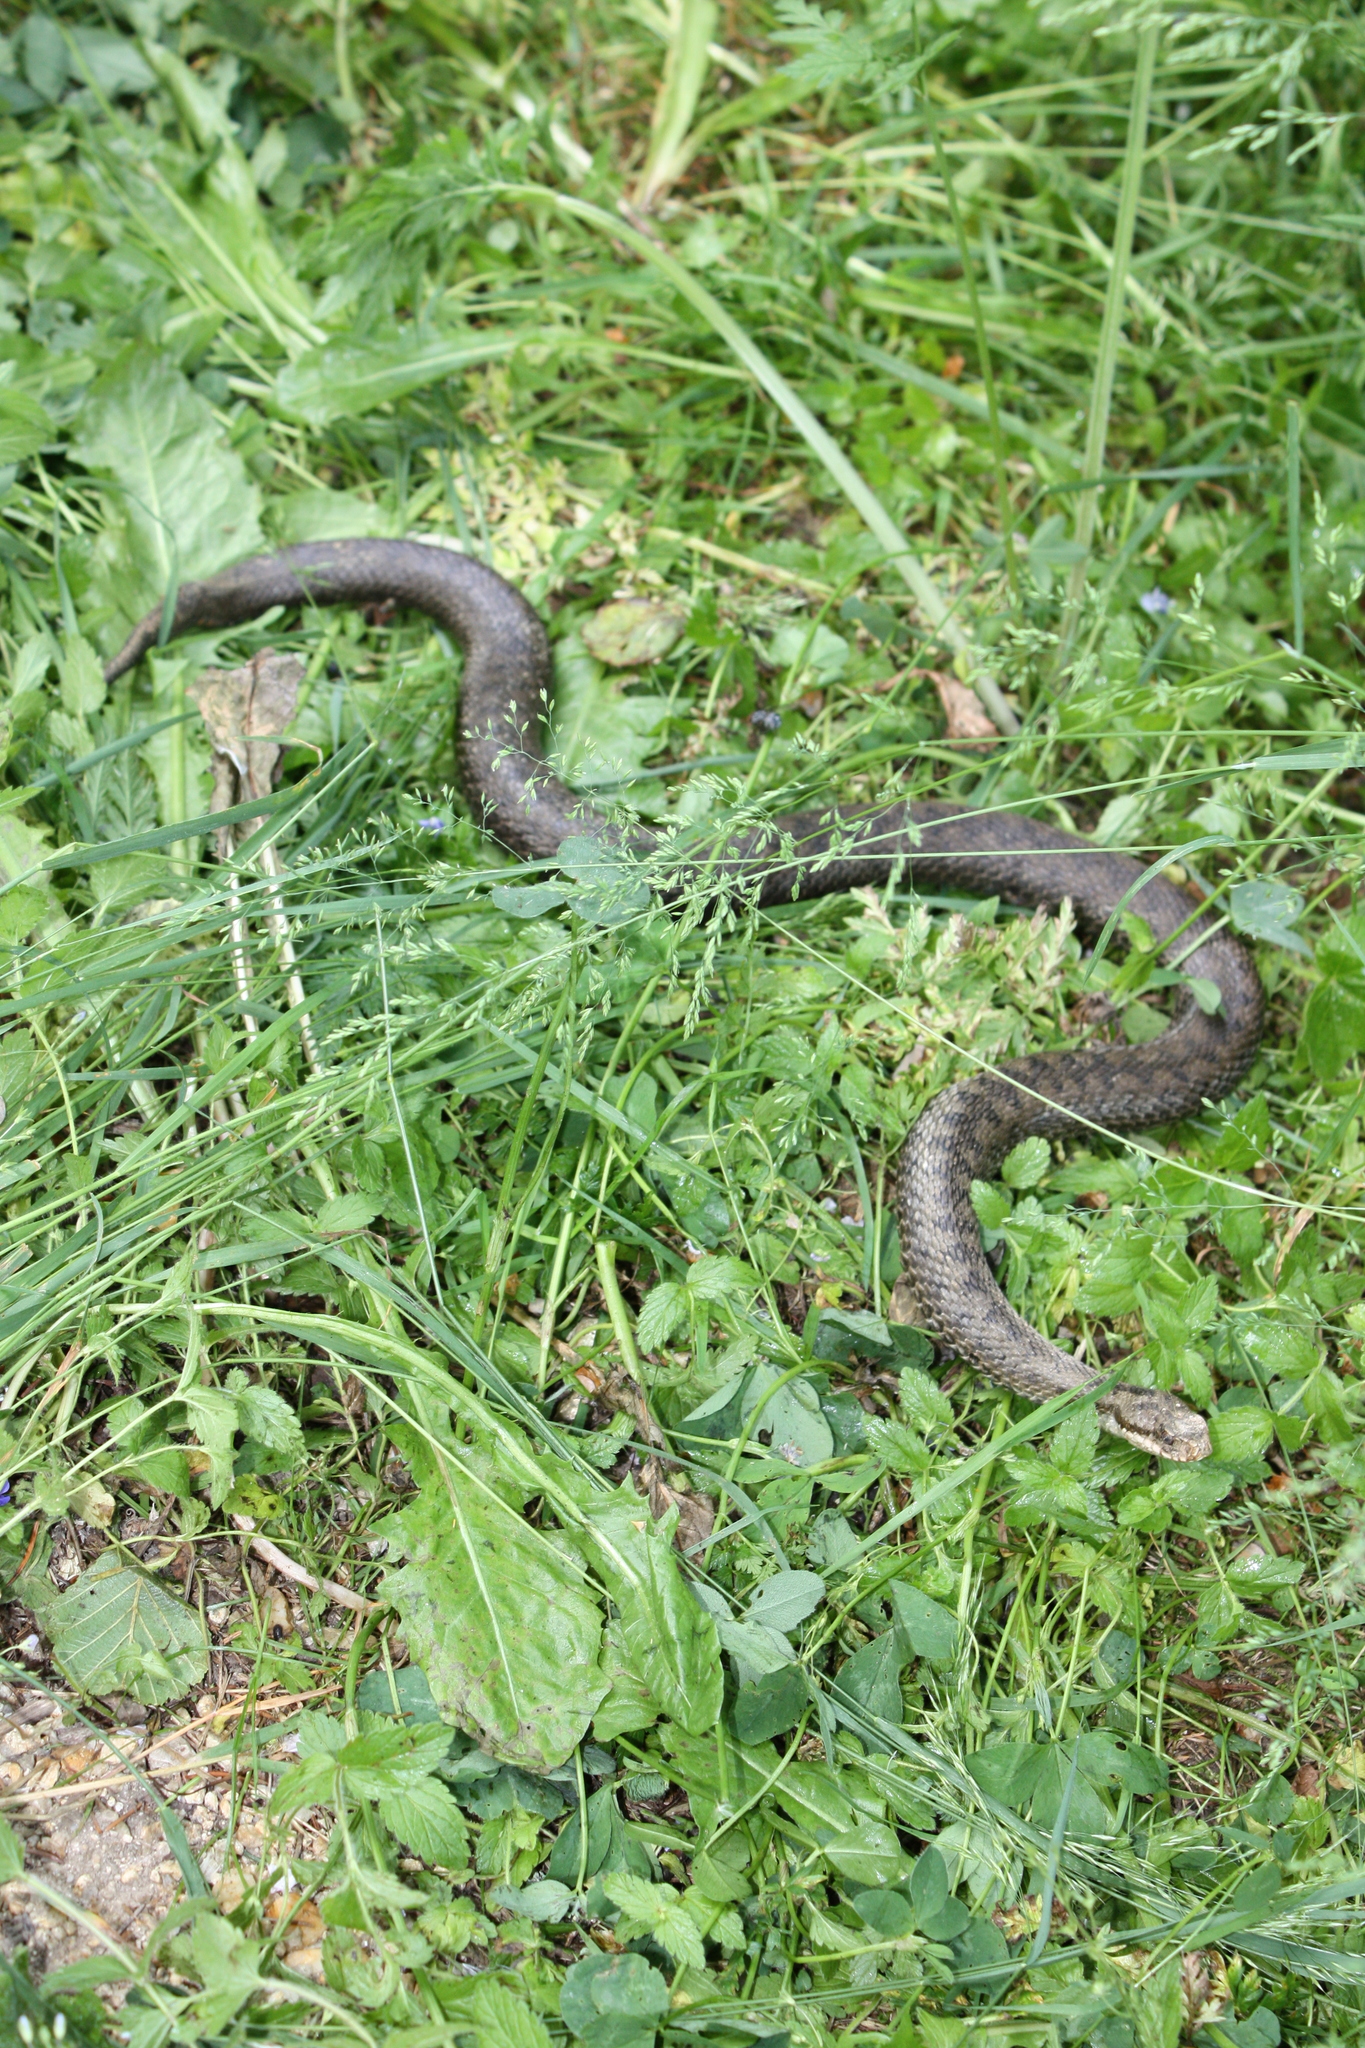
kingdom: Animalia
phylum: Chordata
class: Squamata
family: Viperidae
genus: Vipera
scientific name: Vipera berus
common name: Adder
